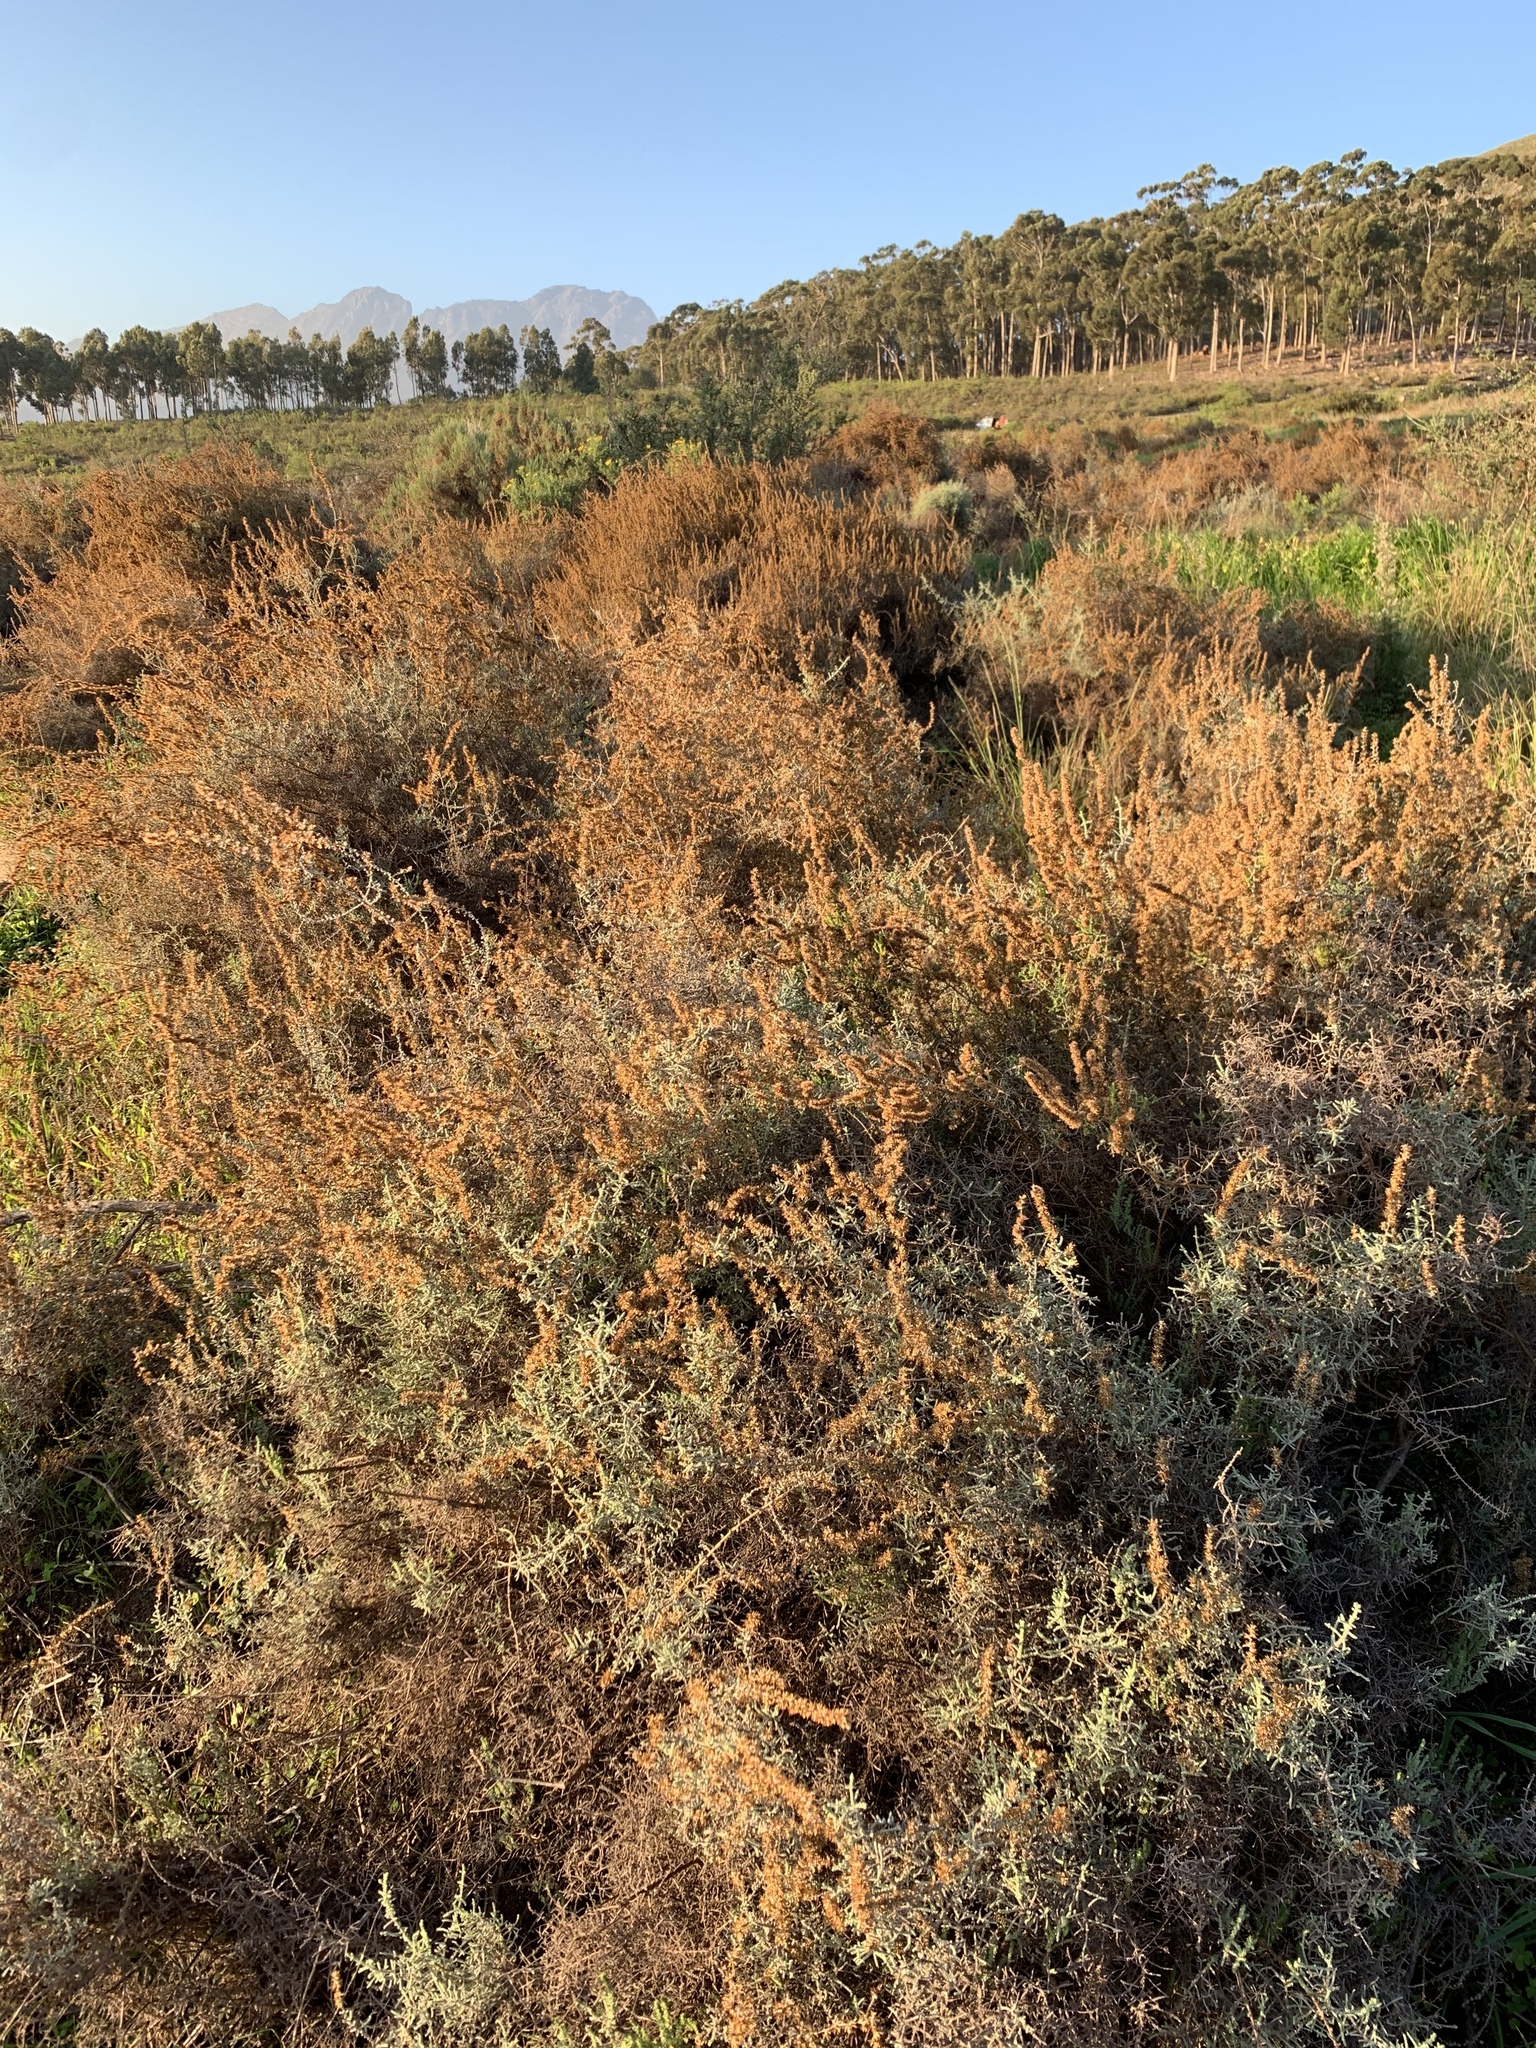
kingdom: Plantae
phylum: Tracheophyta
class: Magnoliopsida
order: Asterales
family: Asteraceae
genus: Seriphium
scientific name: Seriphium plumosum
